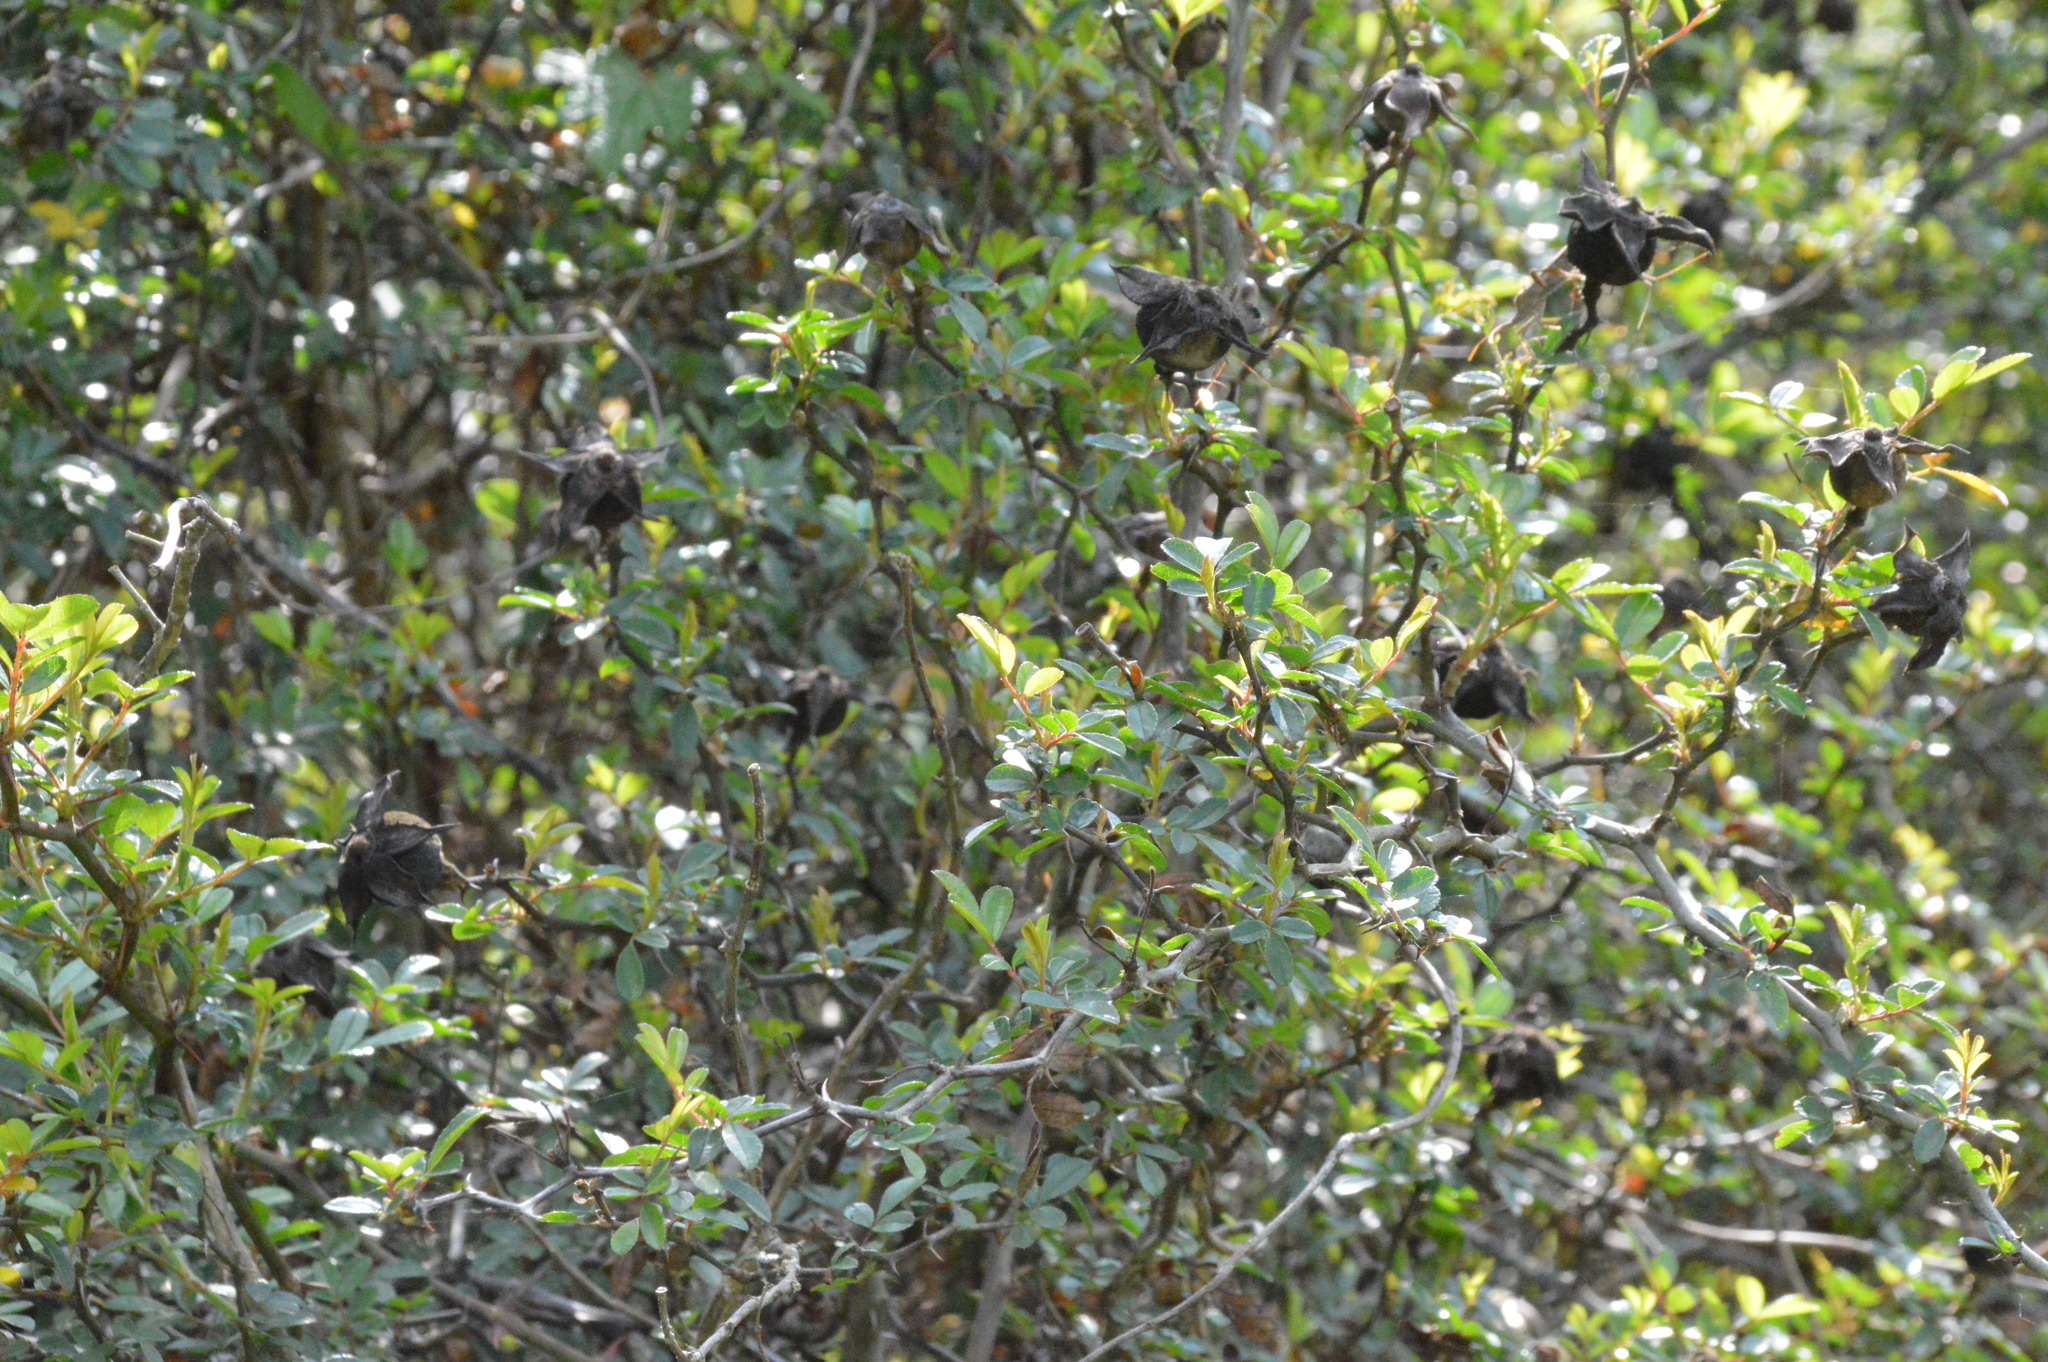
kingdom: Plantae
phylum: Tracheophyta
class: Magnoliopsida
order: Rosales
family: Rosaceae
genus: Rosa
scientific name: Rosa bracteata
